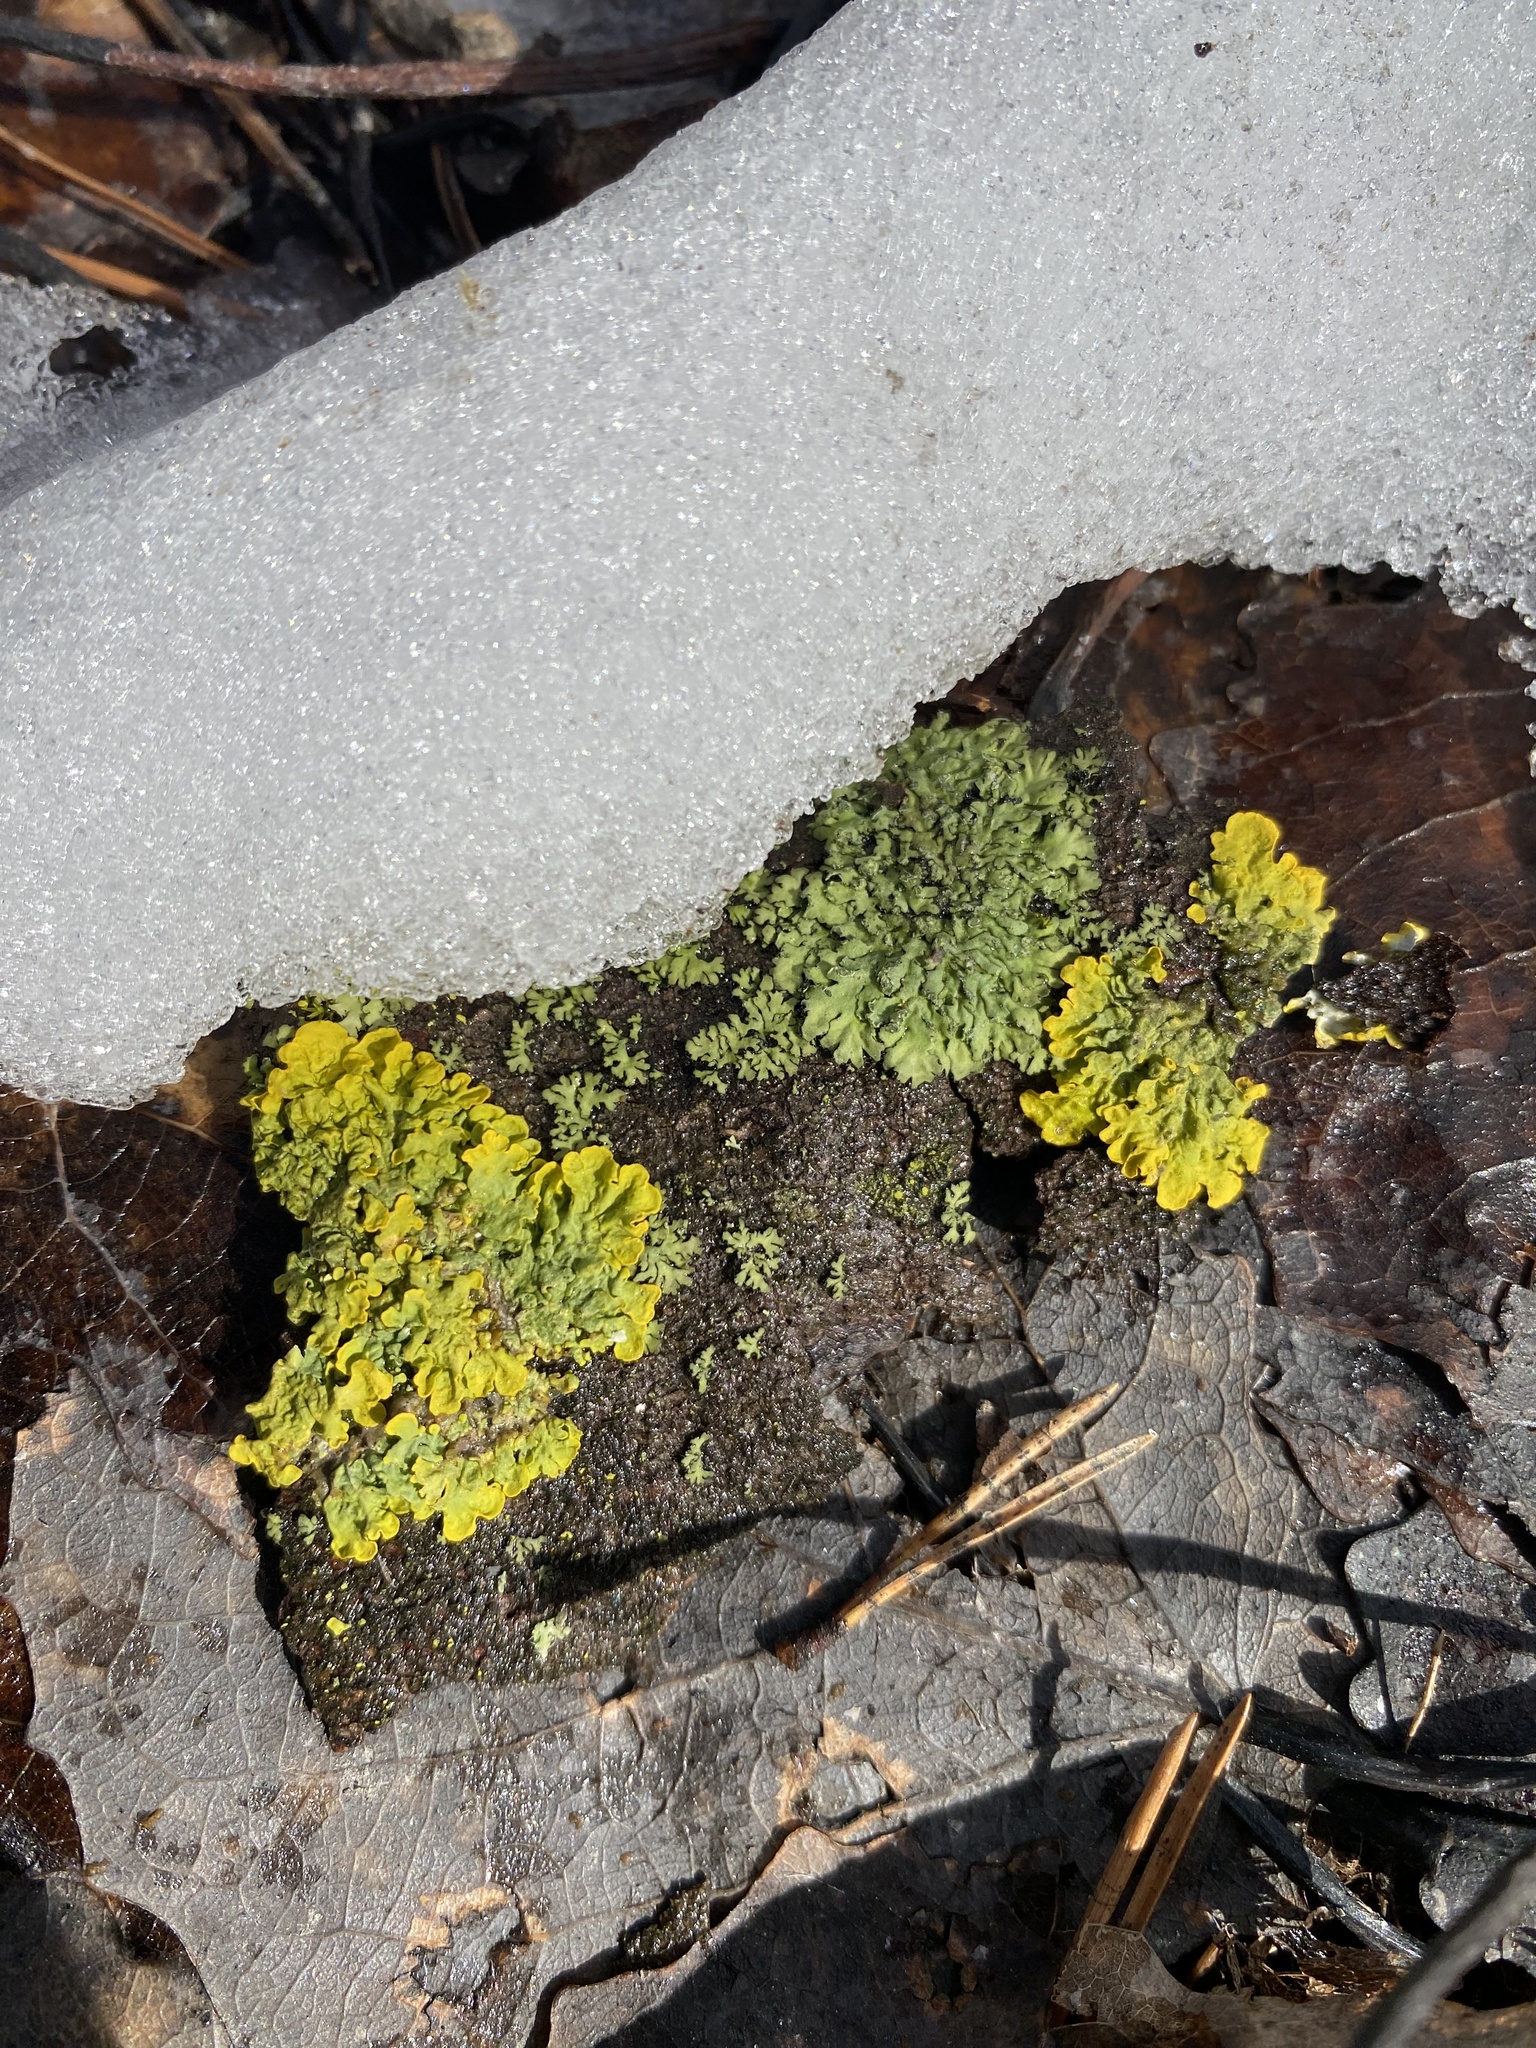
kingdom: Fungi
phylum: Ascomycota
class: Lecanoromycetes
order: Teloschistales
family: Teloschistaceae
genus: Xanthoria
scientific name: Xanthoria parietina
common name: Common orange lichen
